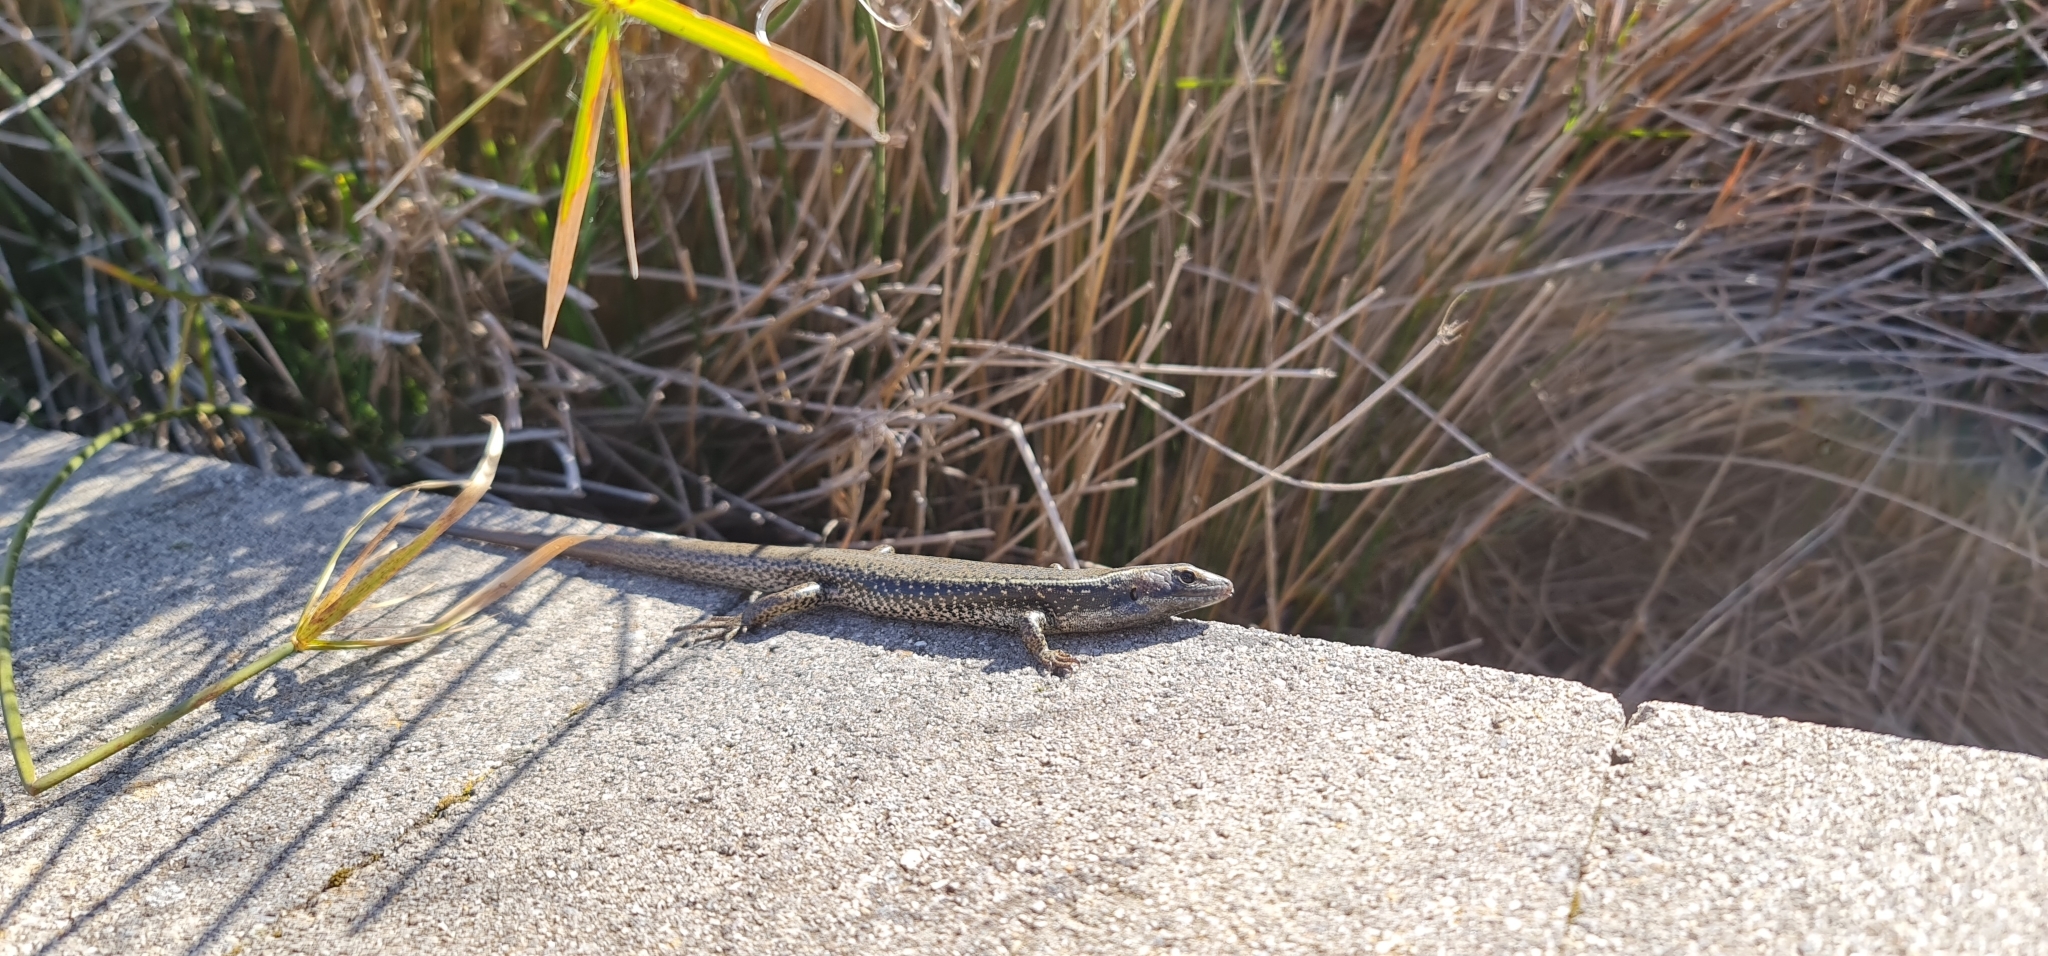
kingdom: Animalia
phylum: Chordata
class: Squamata
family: Scincidae
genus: Eulamprus
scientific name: Eulamprus quoyii
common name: Eastern water skink
